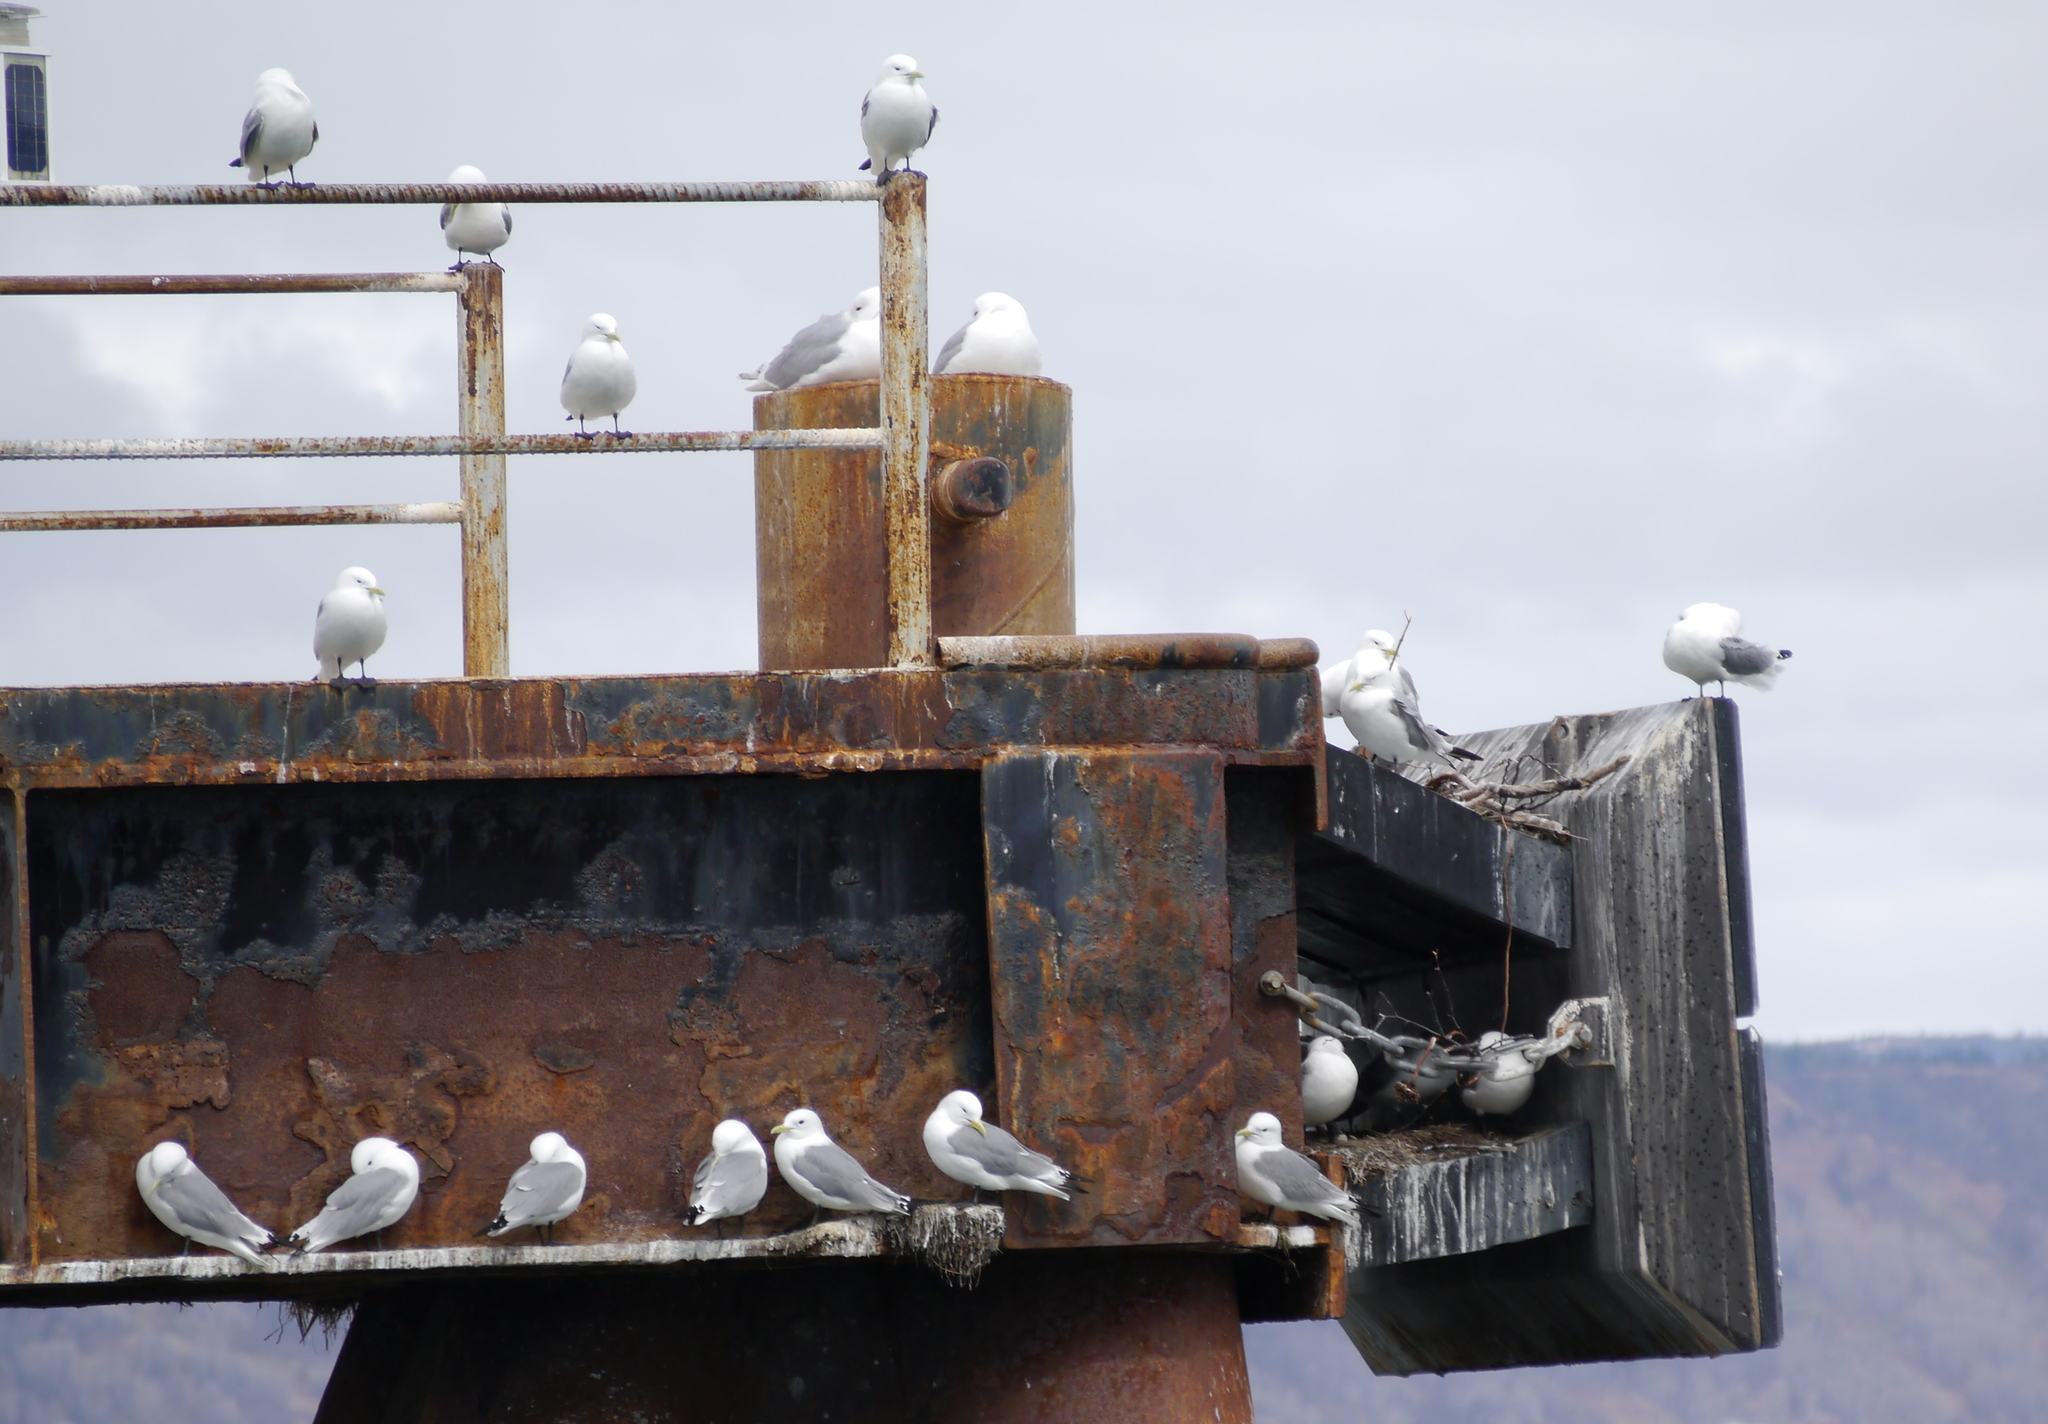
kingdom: Animalia
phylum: Chordata
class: Aves
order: Charadriiformes
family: Laridae
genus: Rissa
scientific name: Rissa tridactyla
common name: Black-legged kittiwake
